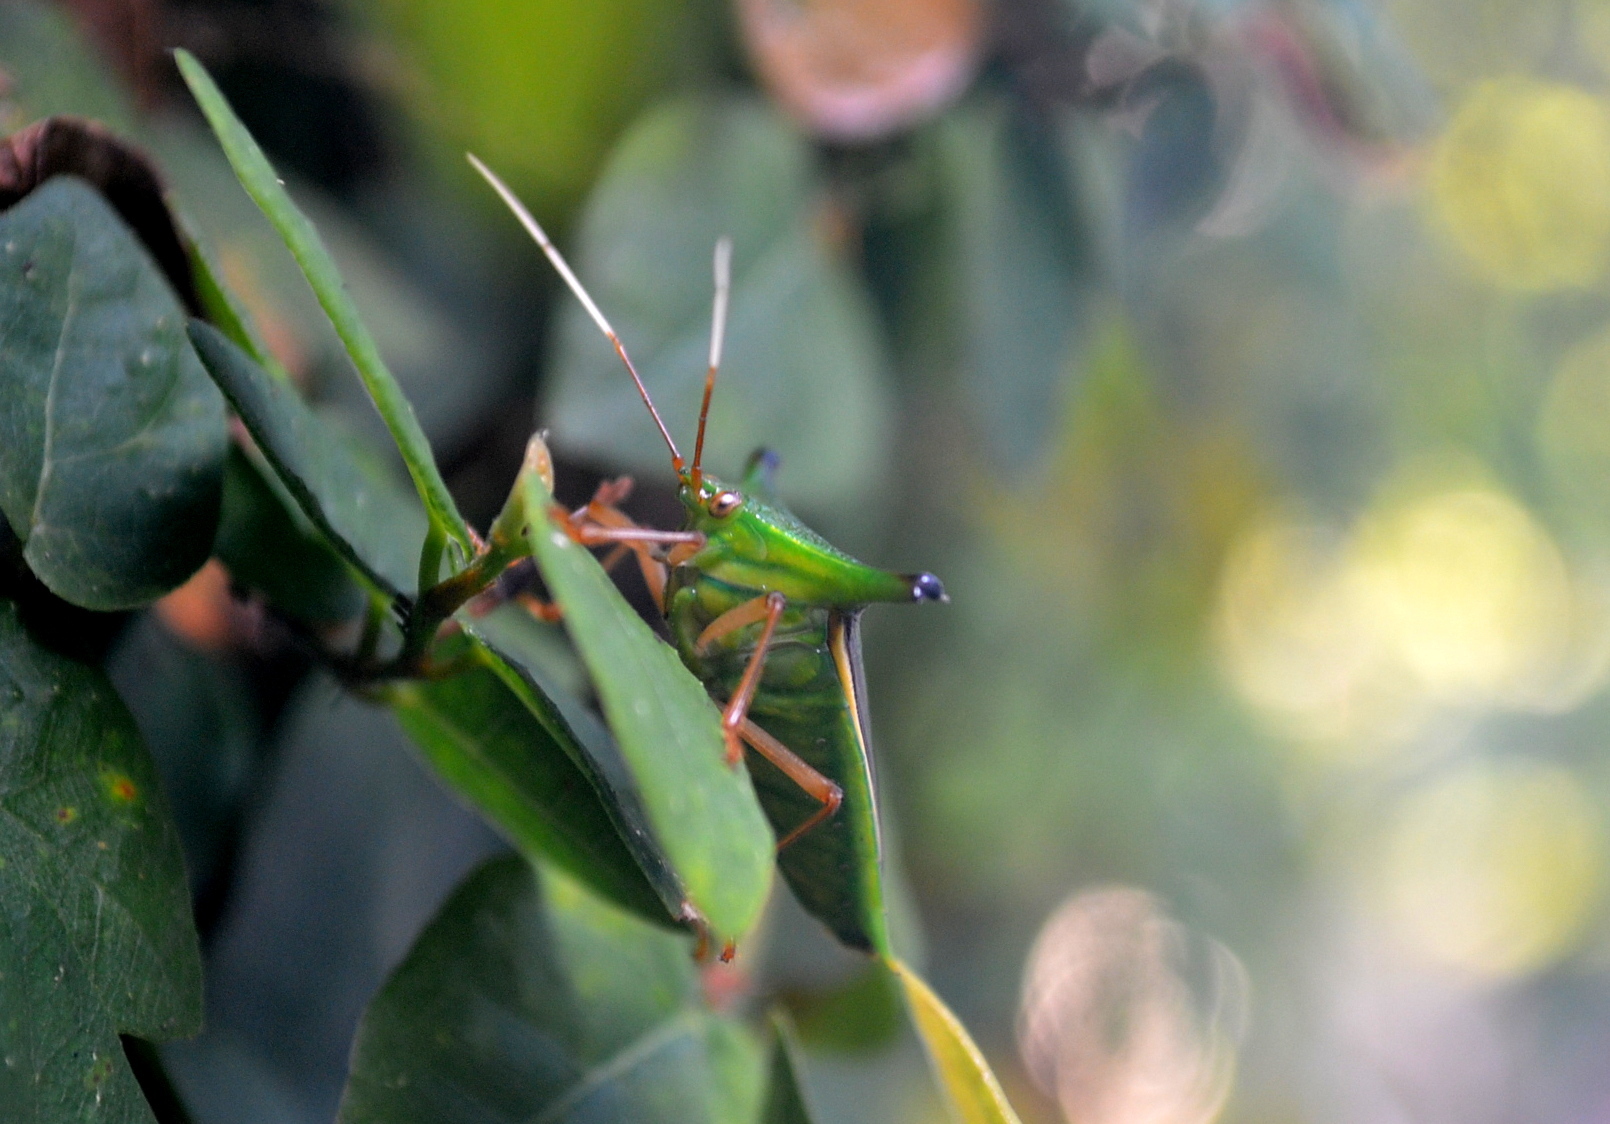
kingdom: Animalia
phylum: Arthropoda
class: Insecta
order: Hemiptera
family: Pentatomidae
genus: Edessa
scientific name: Edessa
